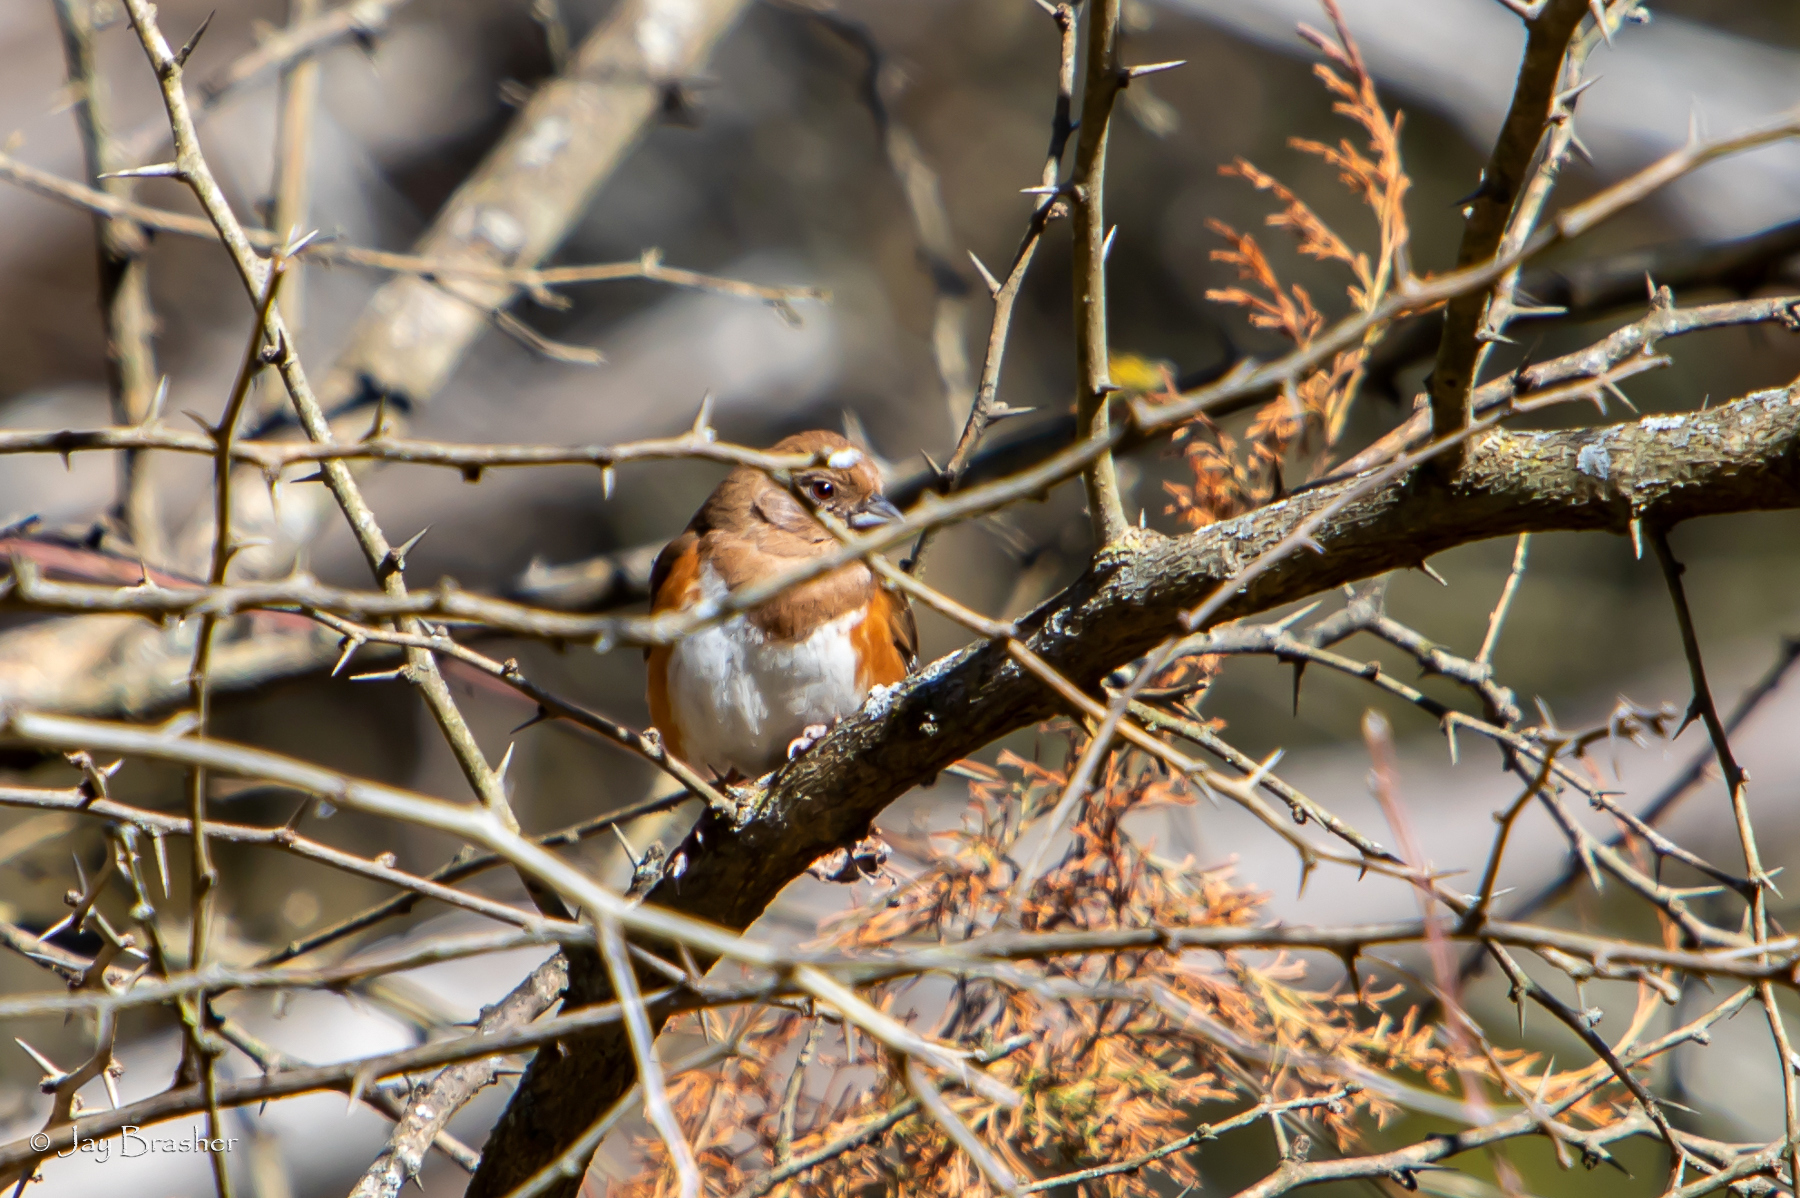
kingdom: Animalia
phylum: Chordata
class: Aves
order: Passeriformes
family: Passerellidae
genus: Pipilo
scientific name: Pipilo erythrophthalmus
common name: Eastern towhee
